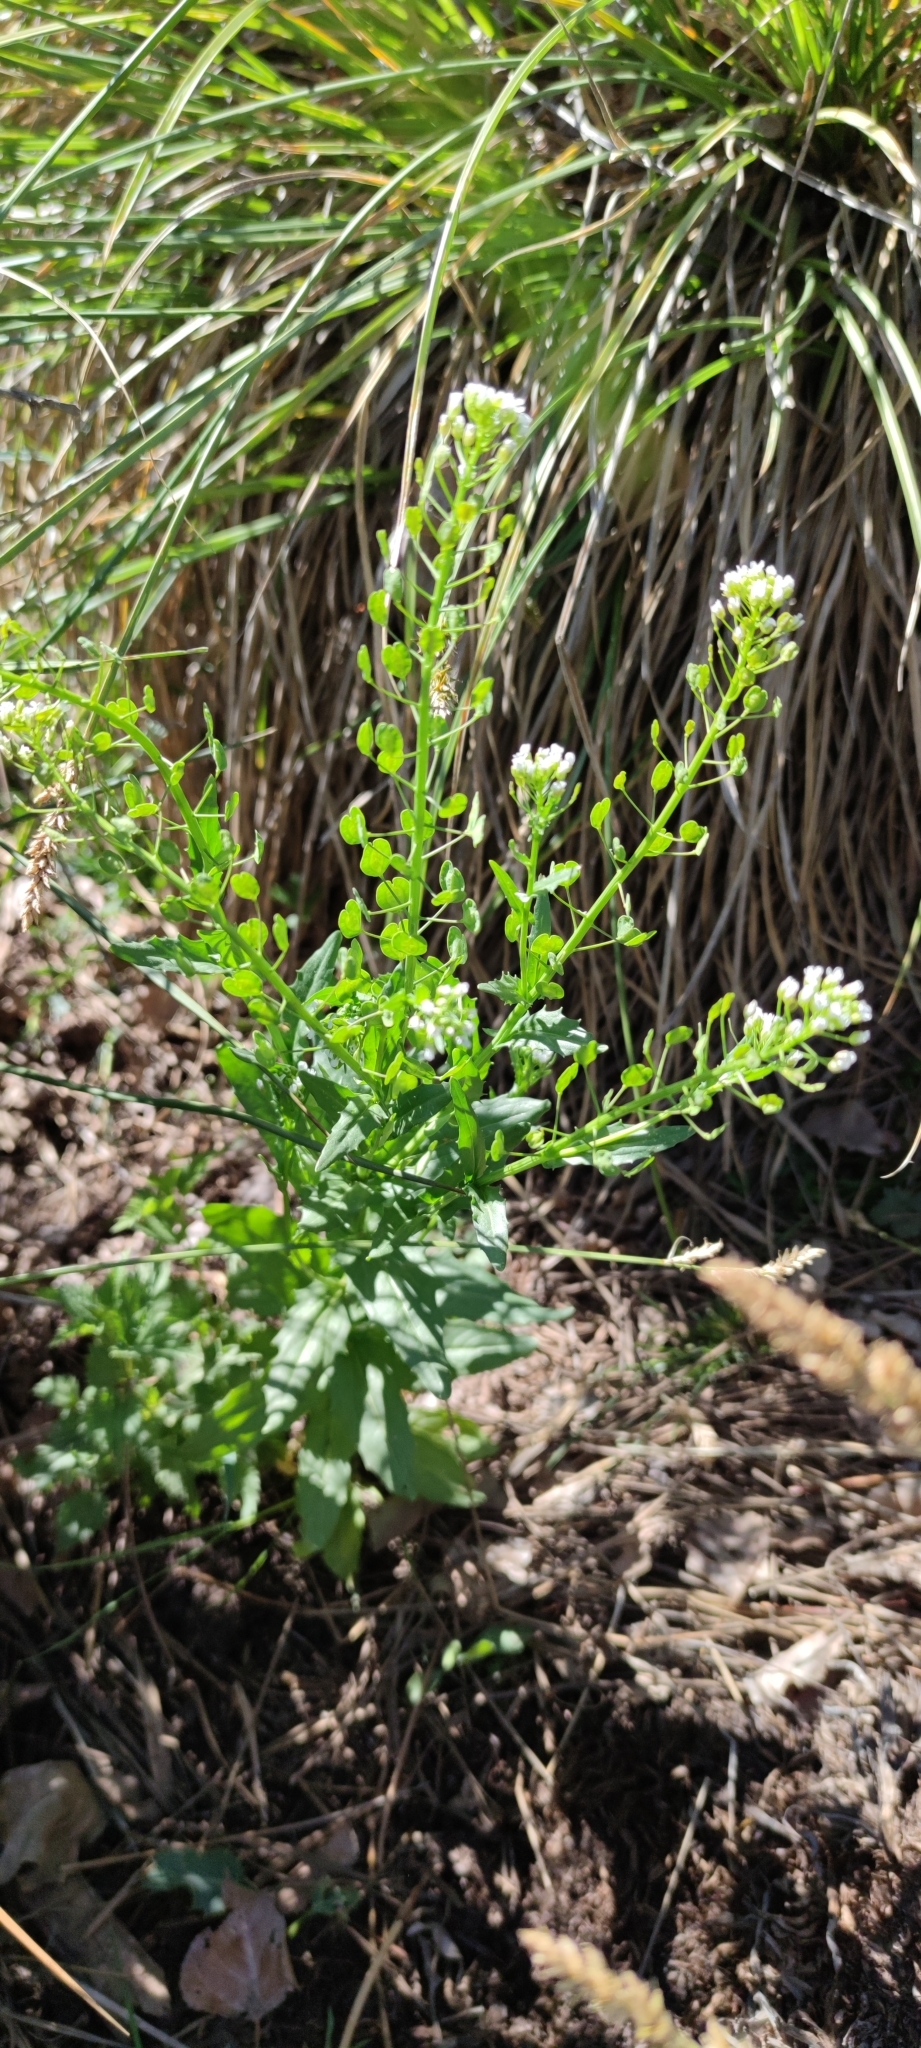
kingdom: Plantae
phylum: Tracheophyta
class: Magnoliopsida
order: Brassicales
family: Brassicaceae
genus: Thlaspi
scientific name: Thlaspi arvense
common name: Field pennycress
